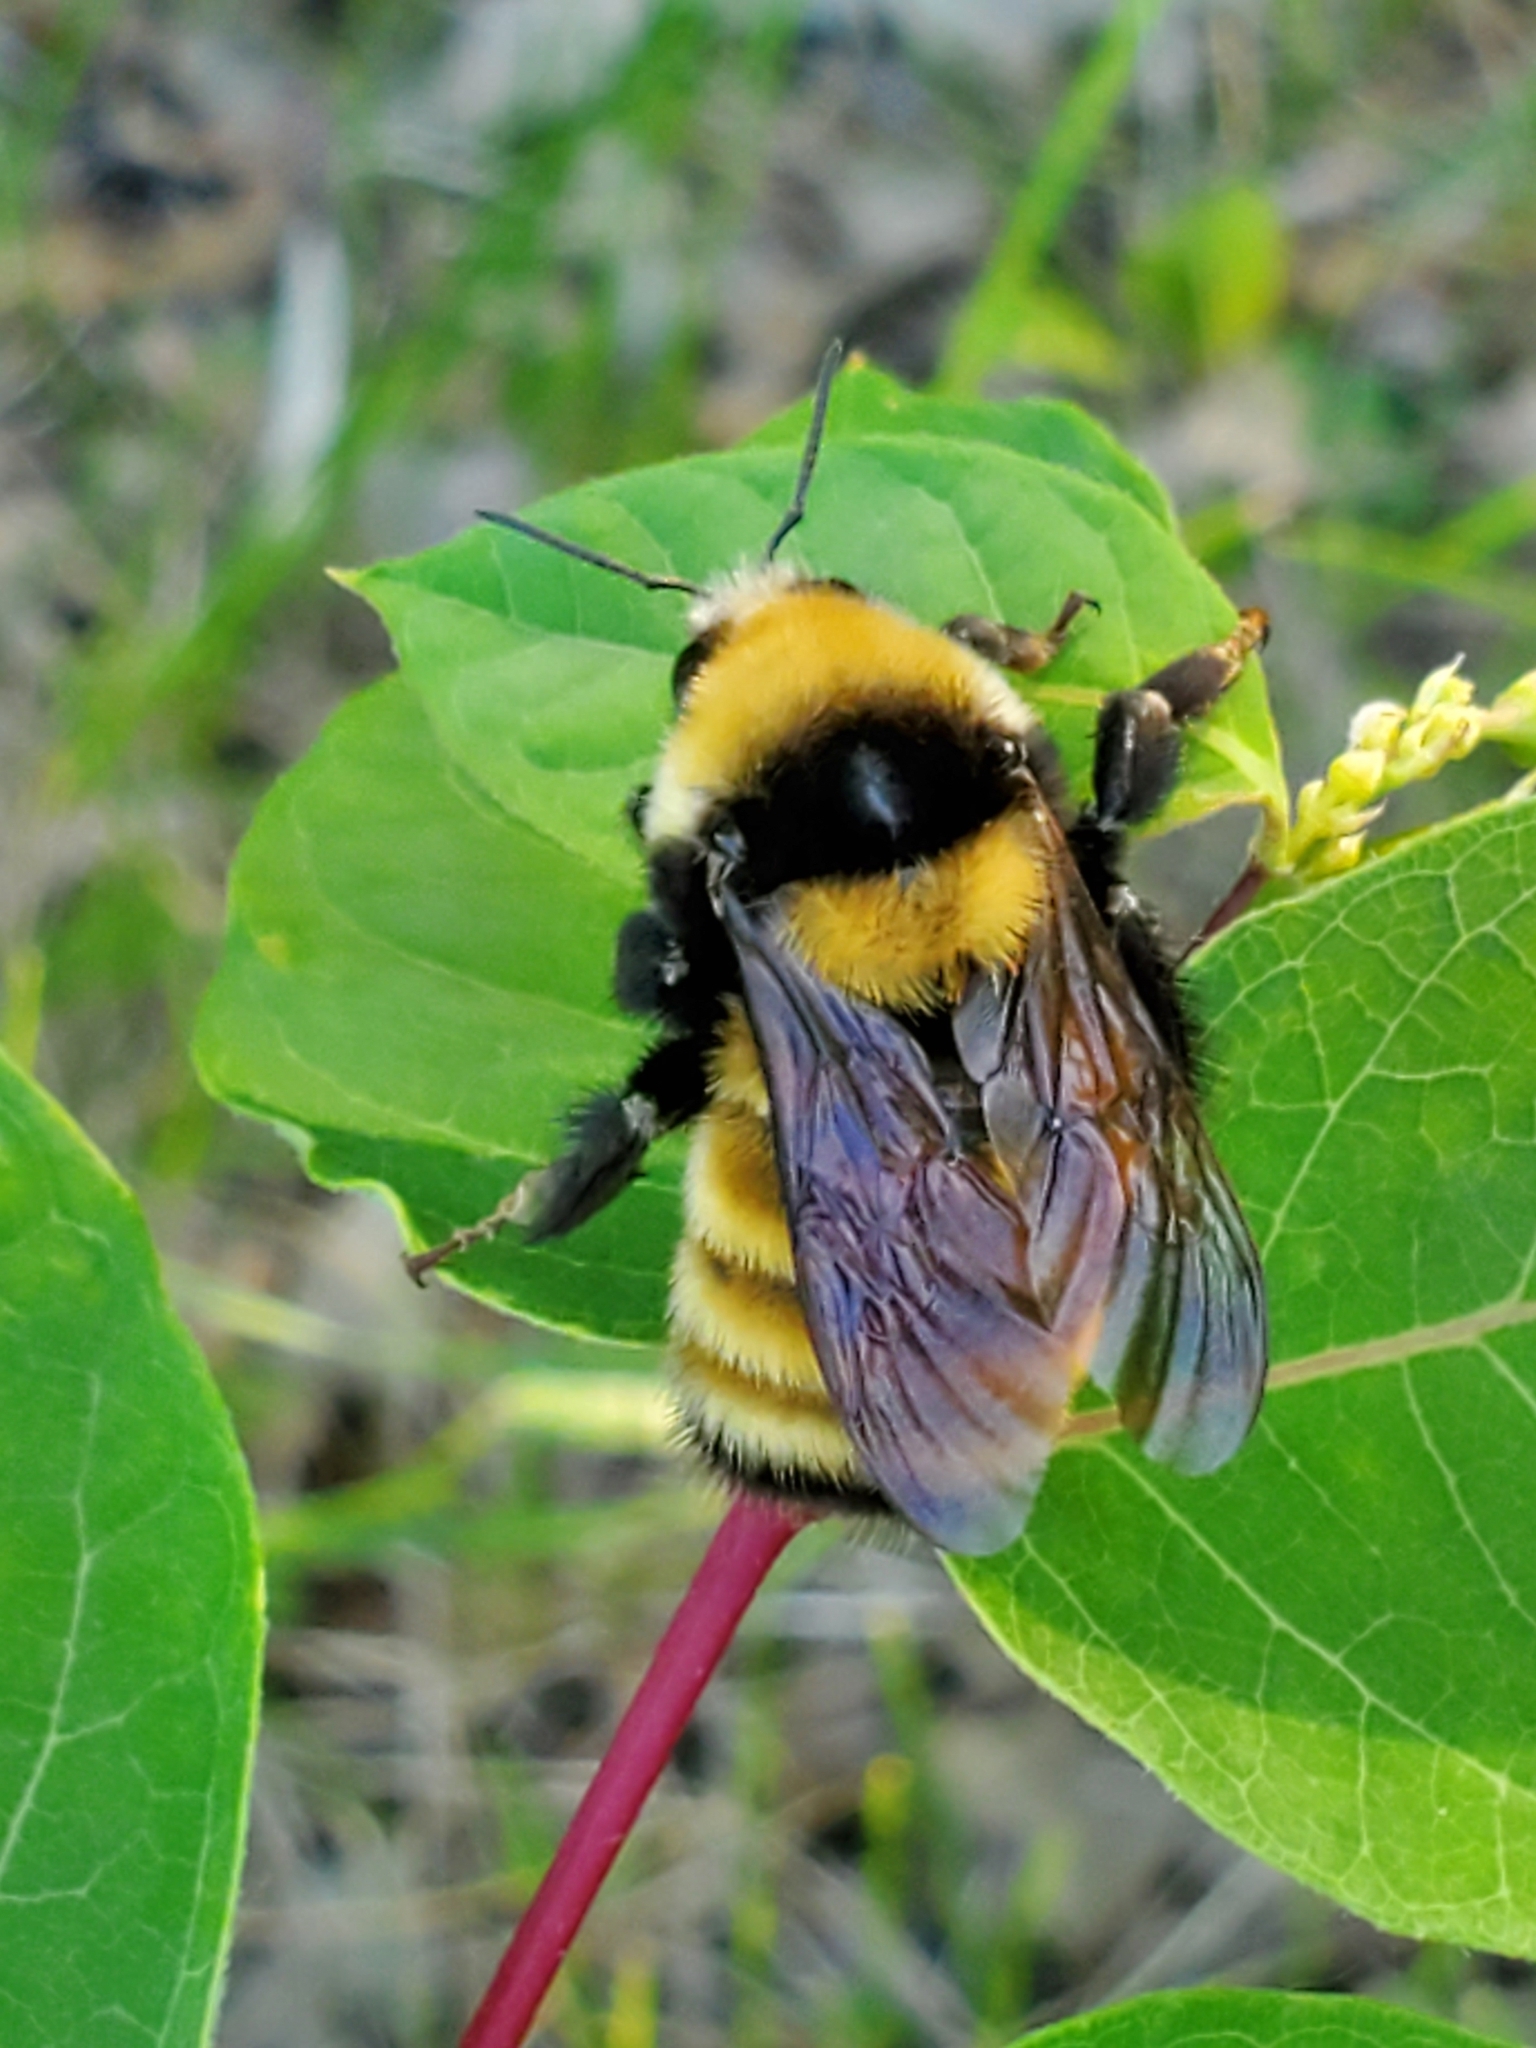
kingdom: Animalia
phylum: Arthropoda
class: Insecta
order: Hymenoptera
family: Apidae
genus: Bombus
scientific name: Bombus borealis
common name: Northern amber bumble bee
